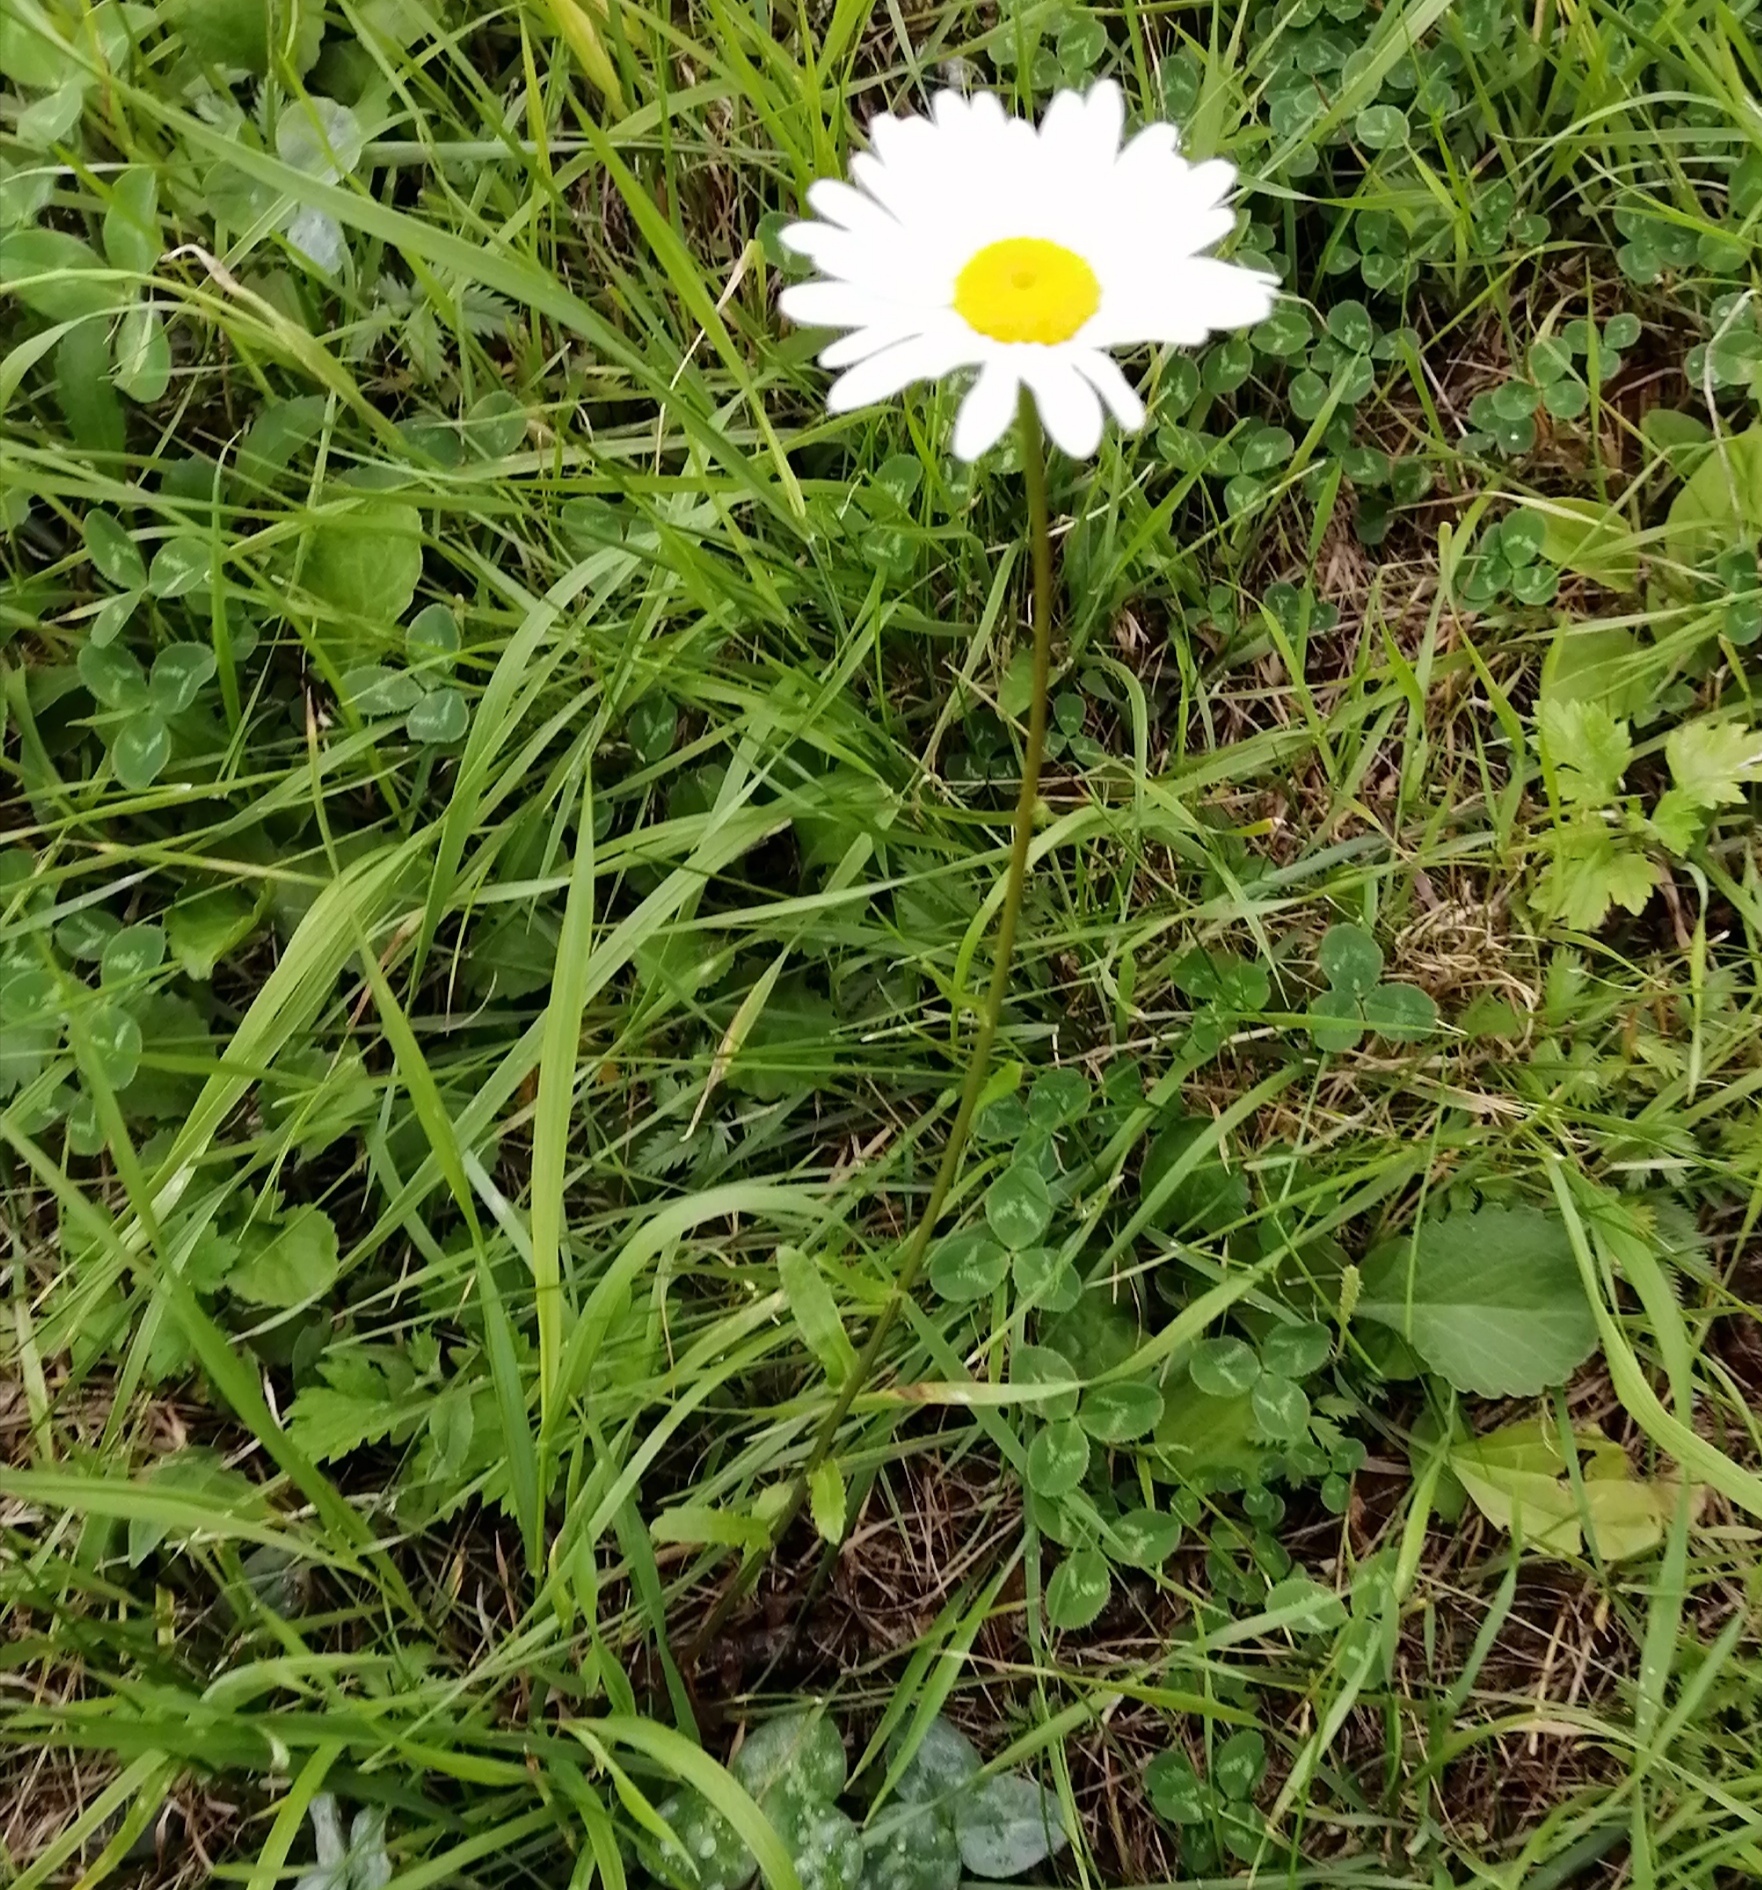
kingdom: Plantae
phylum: Tracheophyta
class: Magnoliopsida
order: Asterales
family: Asteraceae
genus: Leucanthemum
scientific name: Leucanthemum vulgare
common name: Oxeye daisy
